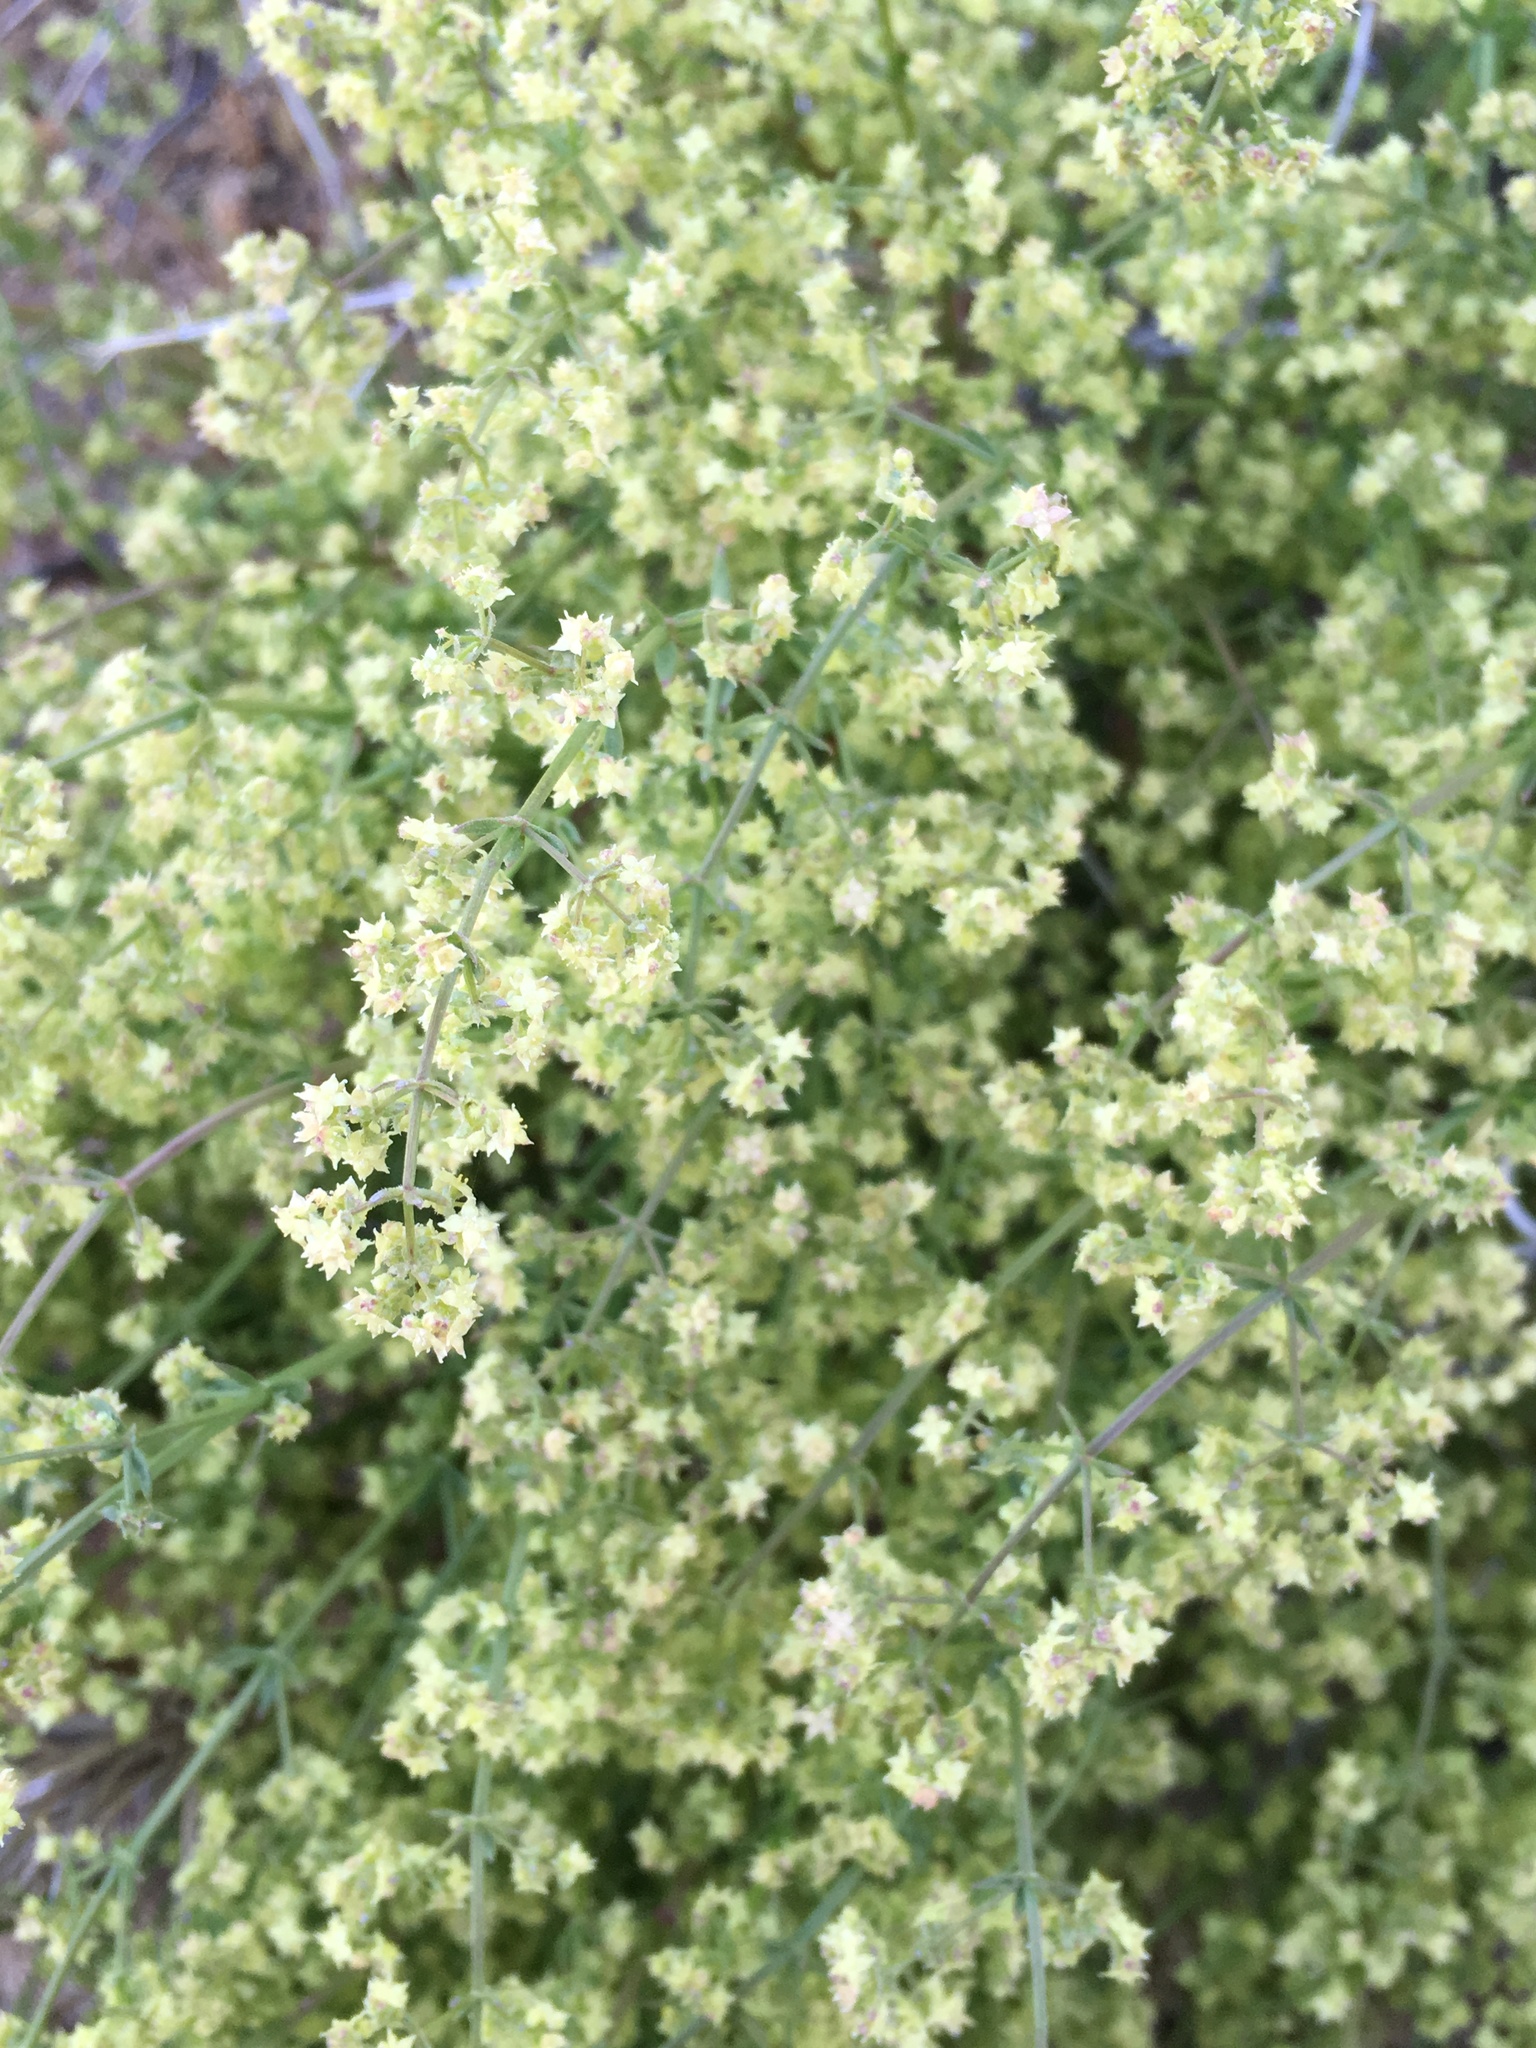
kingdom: Plantae
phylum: Tracheophyta
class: Magnoliopsida
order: Gentianales
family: Rubiaceae
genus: Galium
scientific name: Galium stellatum
